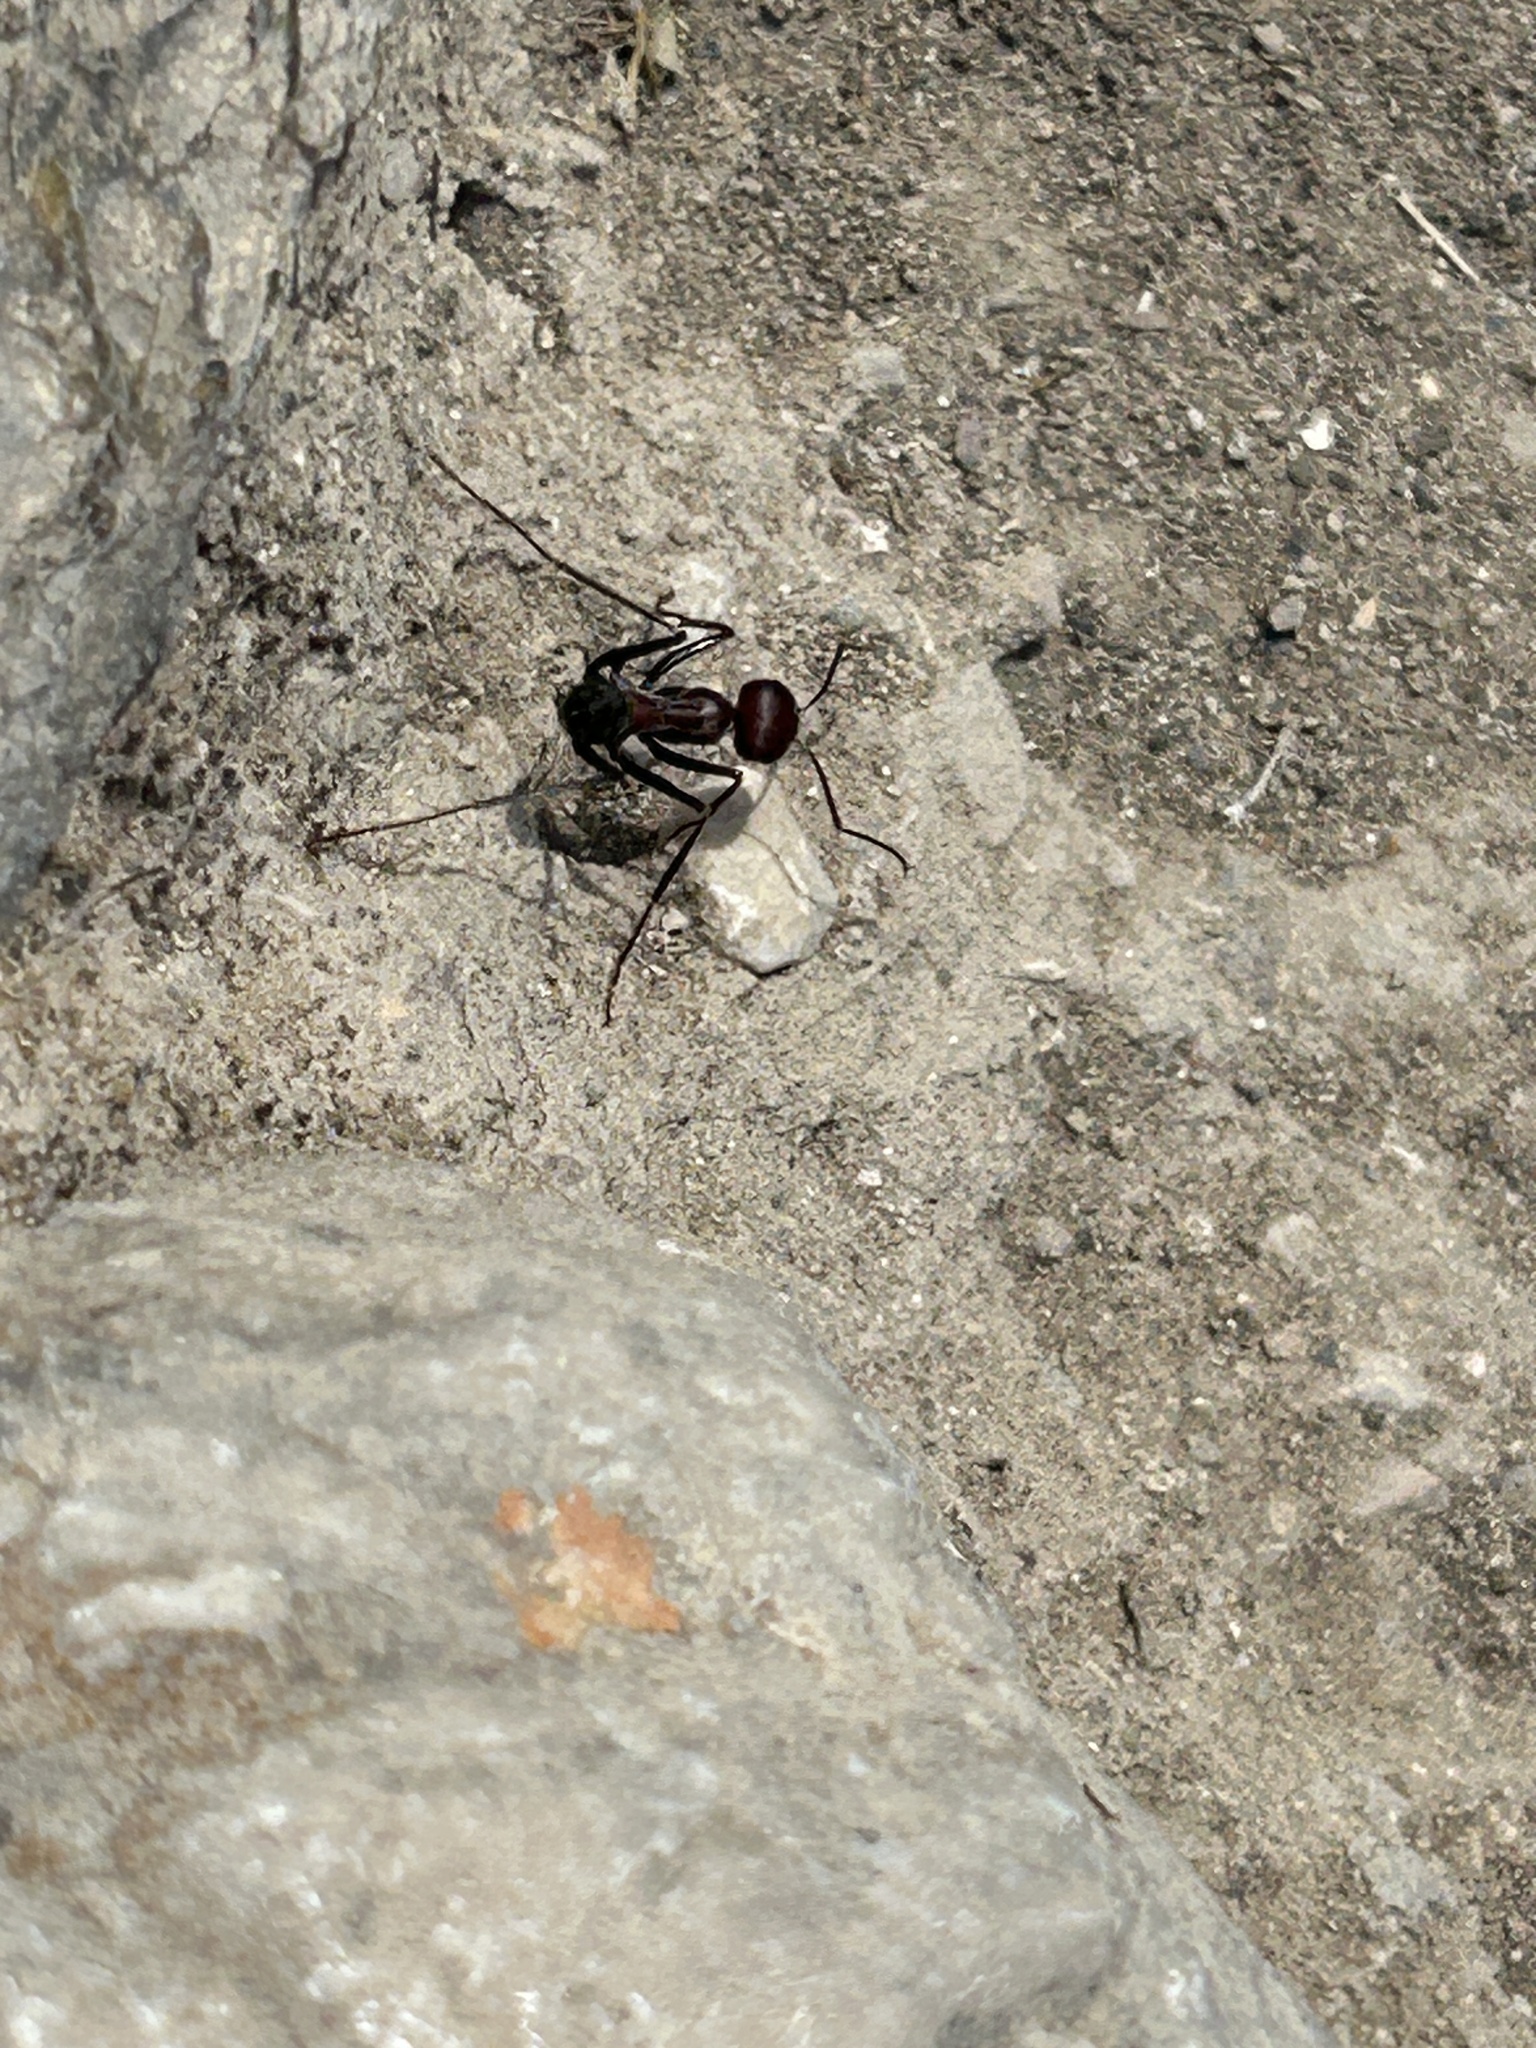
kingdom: Animalia
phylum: Arthropoda
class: Insecta
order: Hymenoptera
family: Formicidae
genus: Cataglyphis
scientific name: Cataglyphis nodus
